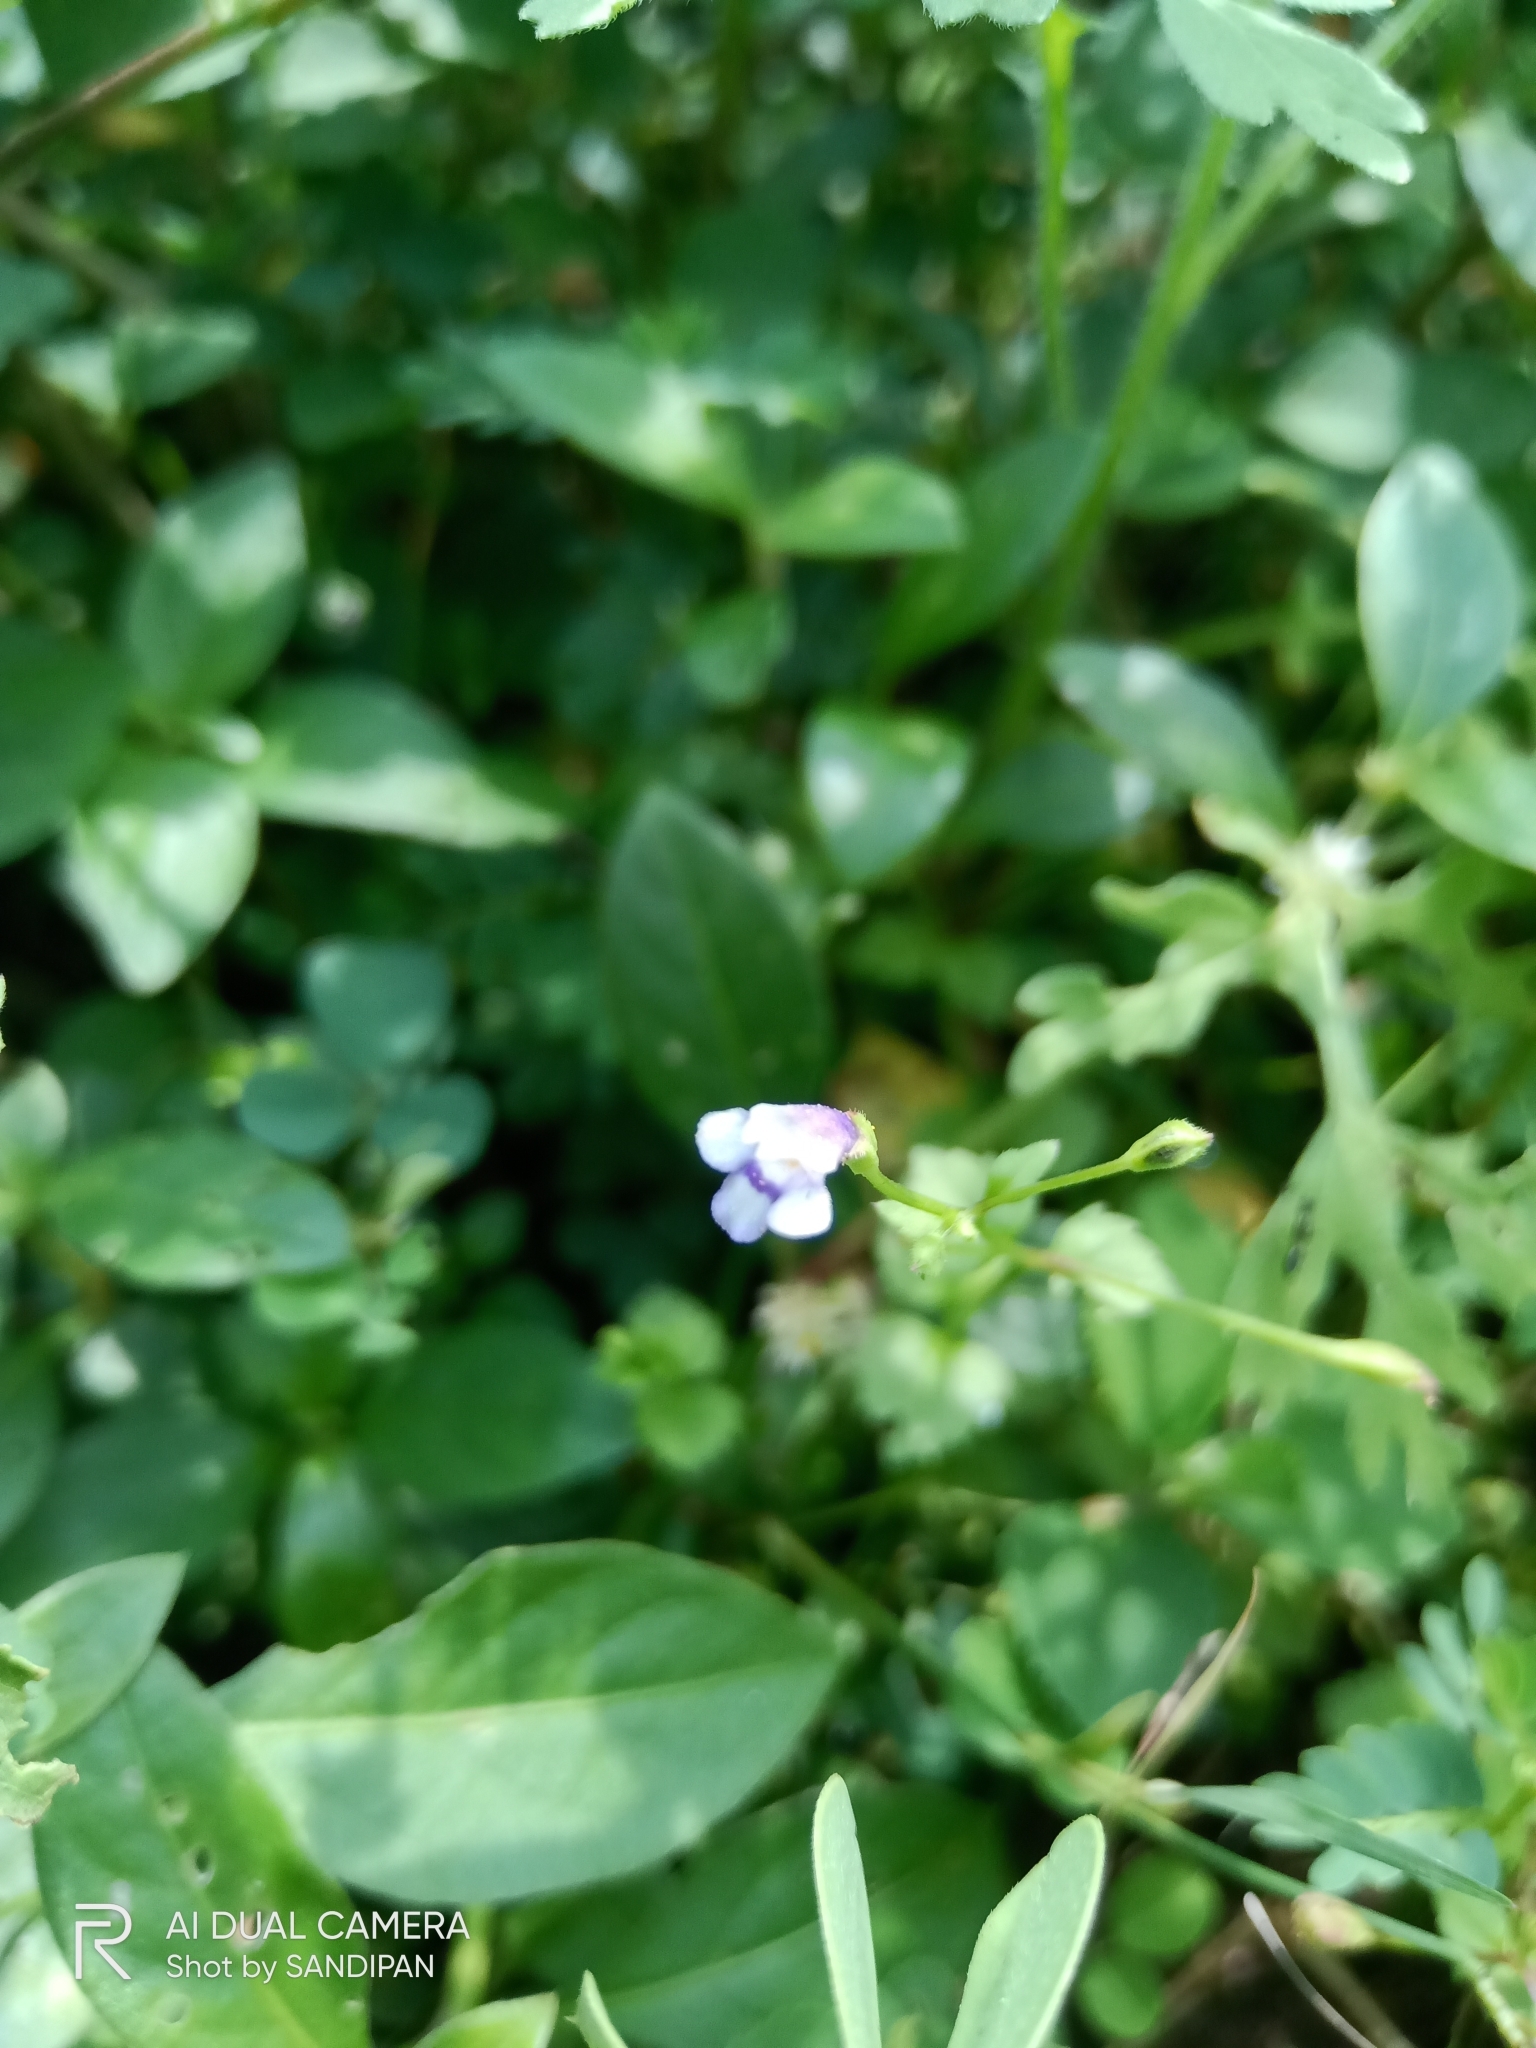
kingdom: Plantae
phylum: Tracheophyta
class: Magnoliopsida
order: Lamiales
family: Linderniaceae
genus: Torenia
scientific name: Torenia crustacea
